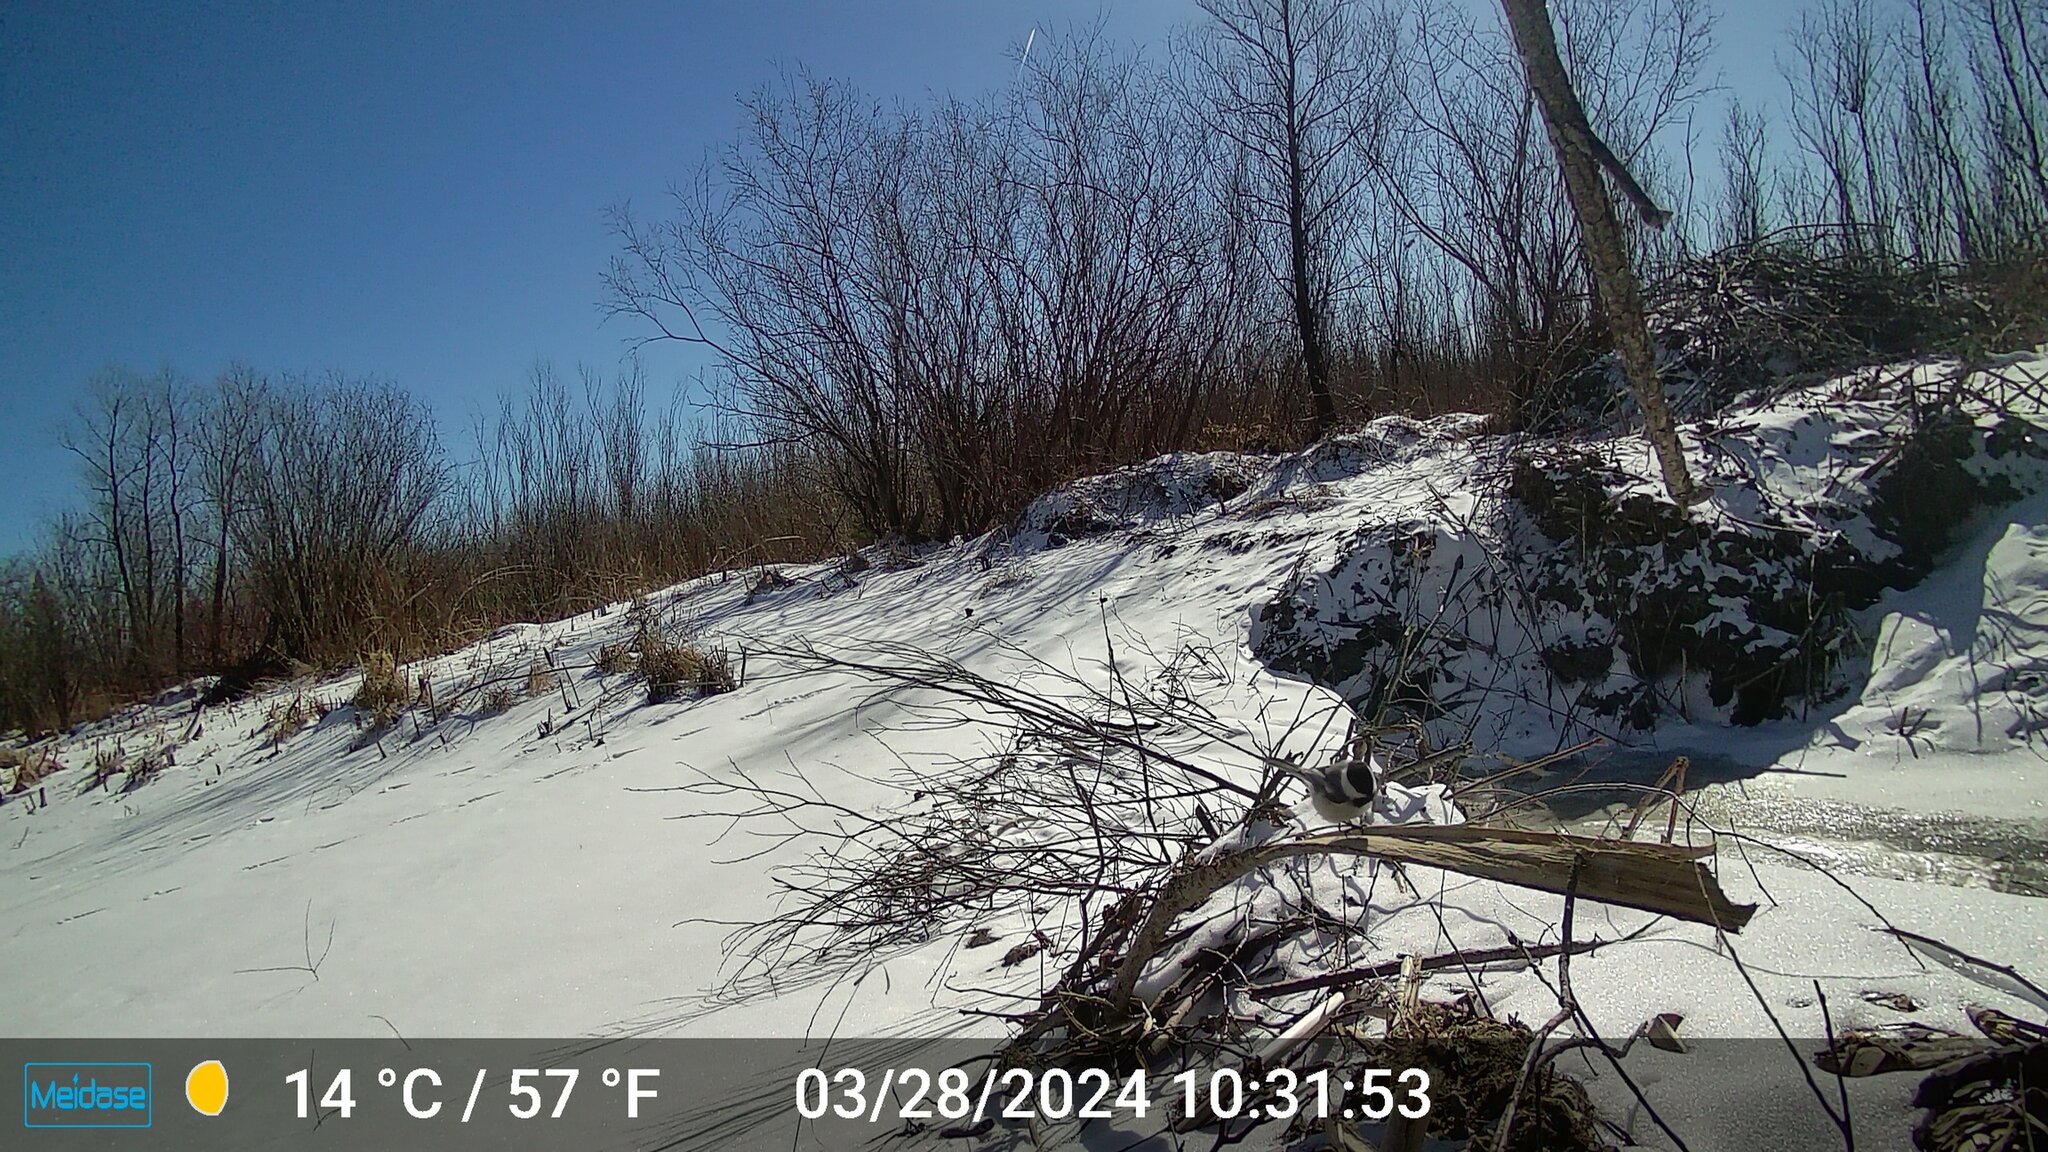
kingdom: Animalia
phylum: Chordata
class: Aves
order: Passeriformes
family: Paridae
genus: Poecile
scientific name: Poecile atricapillus
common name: Black-capped chickadee
